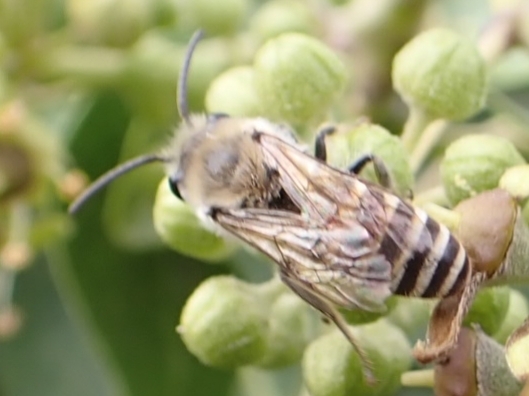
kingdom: Animalia
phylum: Arthropoda
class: Insecta
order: Hymenoptera
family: Colletidae
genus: Colletes
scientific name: Colletes hederae
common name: Ivy bee
